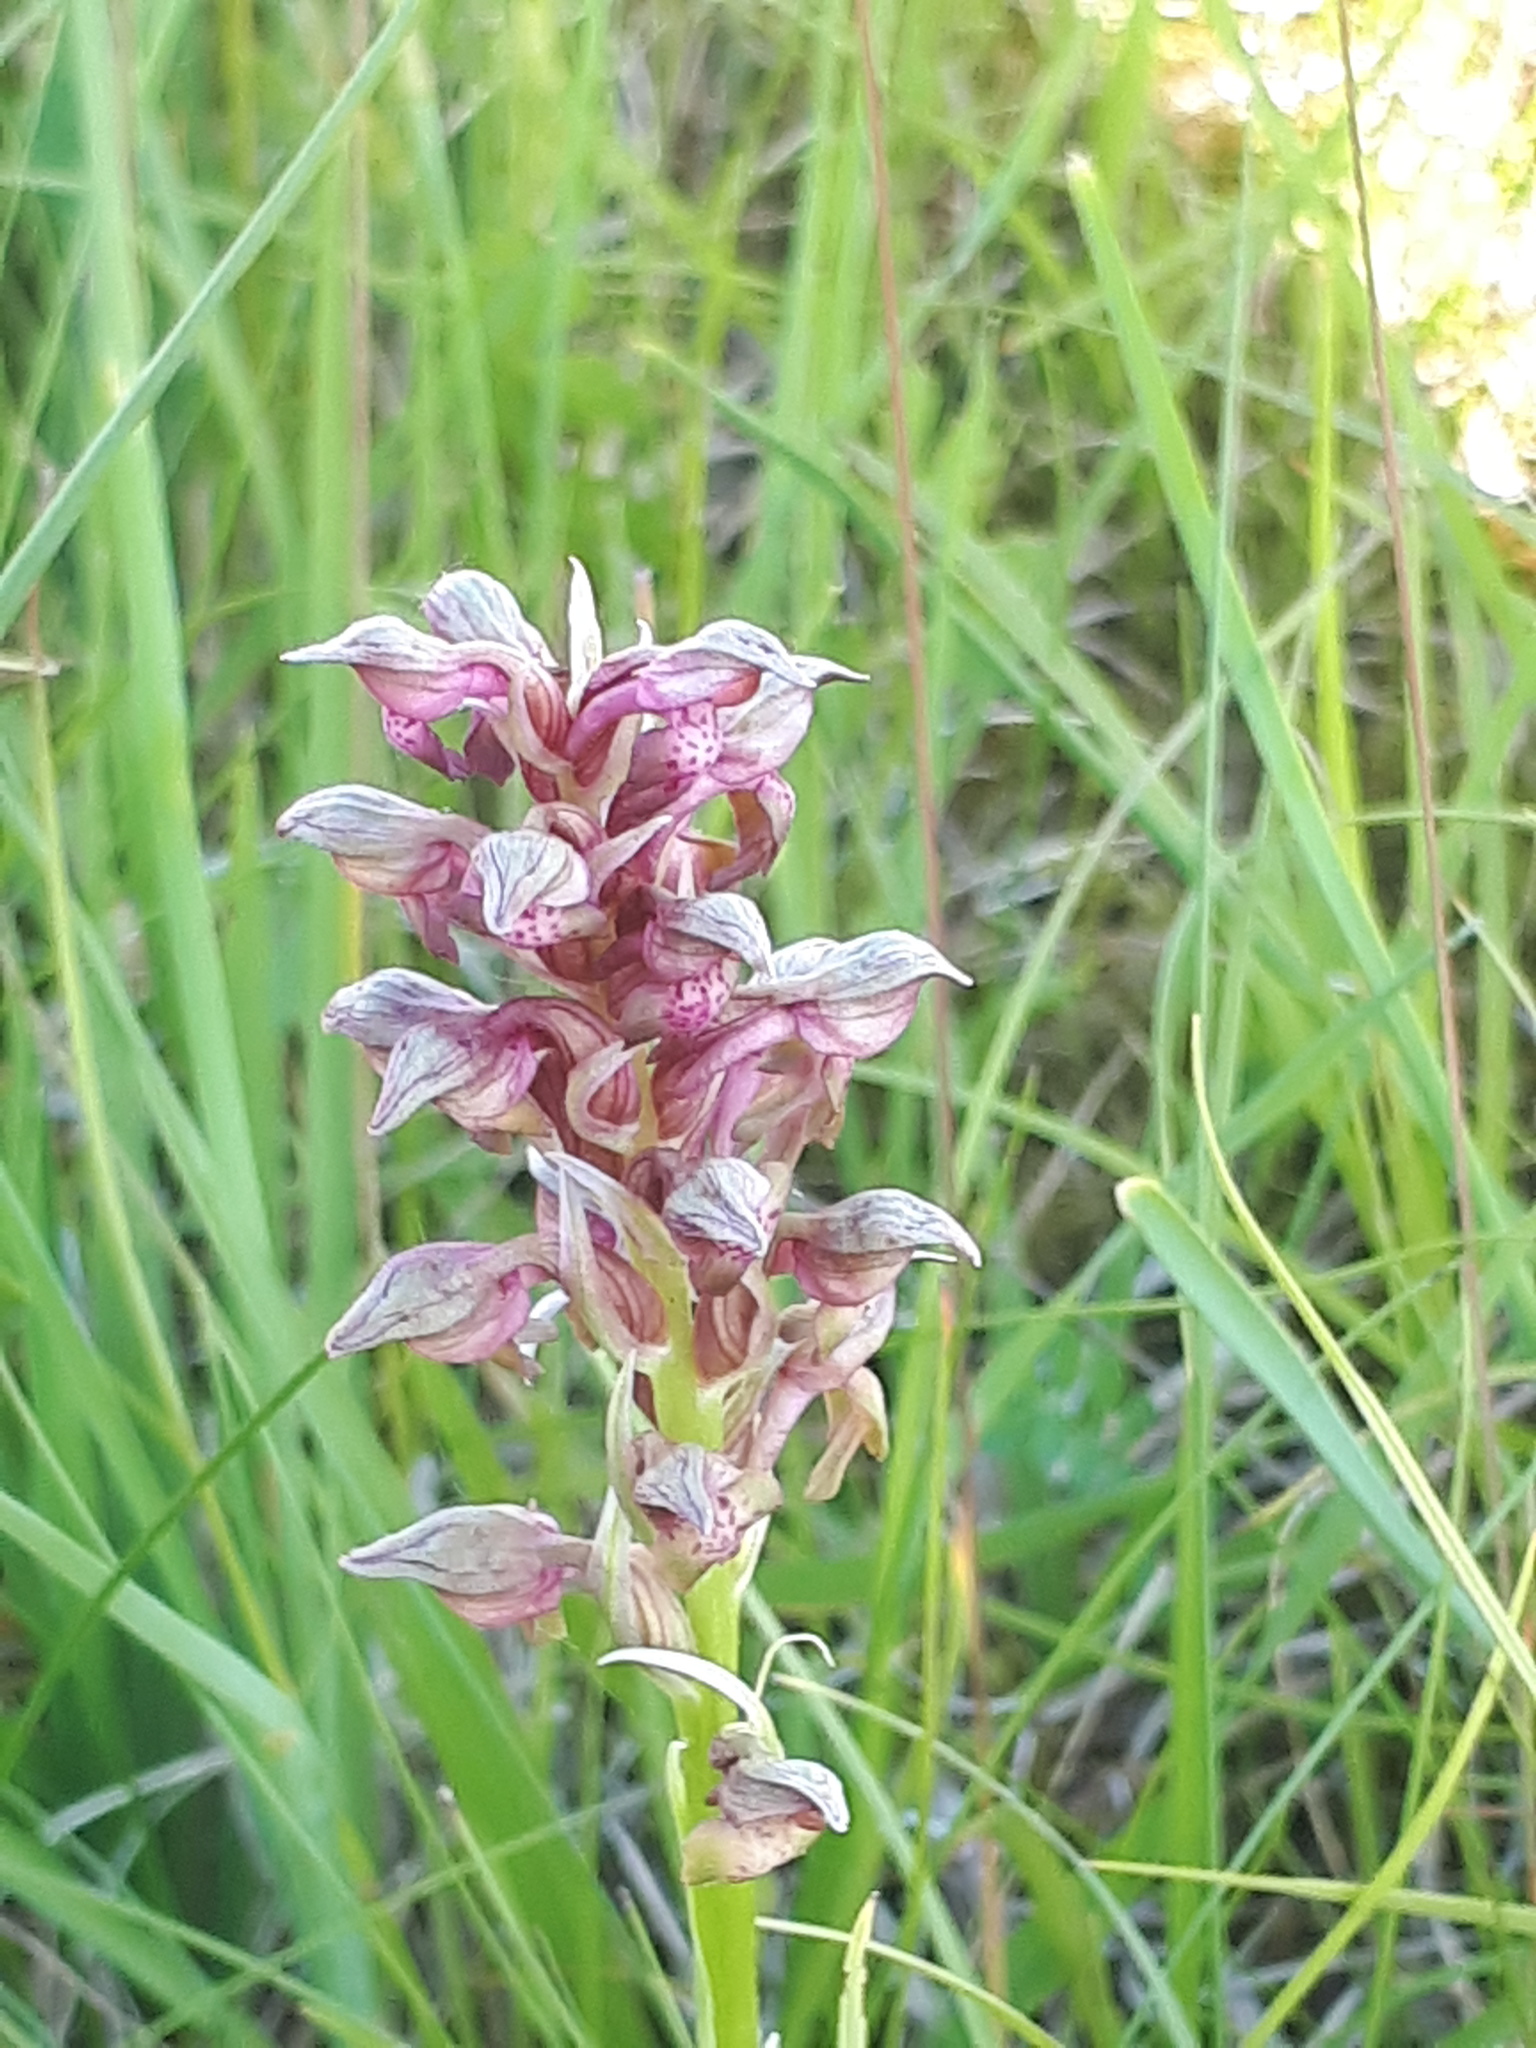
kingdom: Plantae
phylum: Tracheophyta
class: Liliopsida
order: Asparagales
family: Orchidaceae
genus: Anacamptis
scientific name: Anacamptis coriophora
